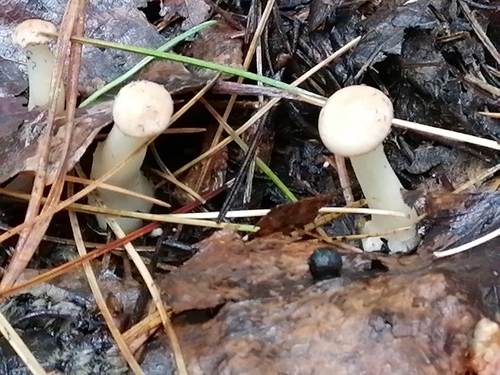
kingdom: Fungi
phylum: Basidiomycota
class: Agaricomycetes
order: Agaricales
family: Tricholomataceae
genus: Clitocybe
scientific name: Clitocybe
